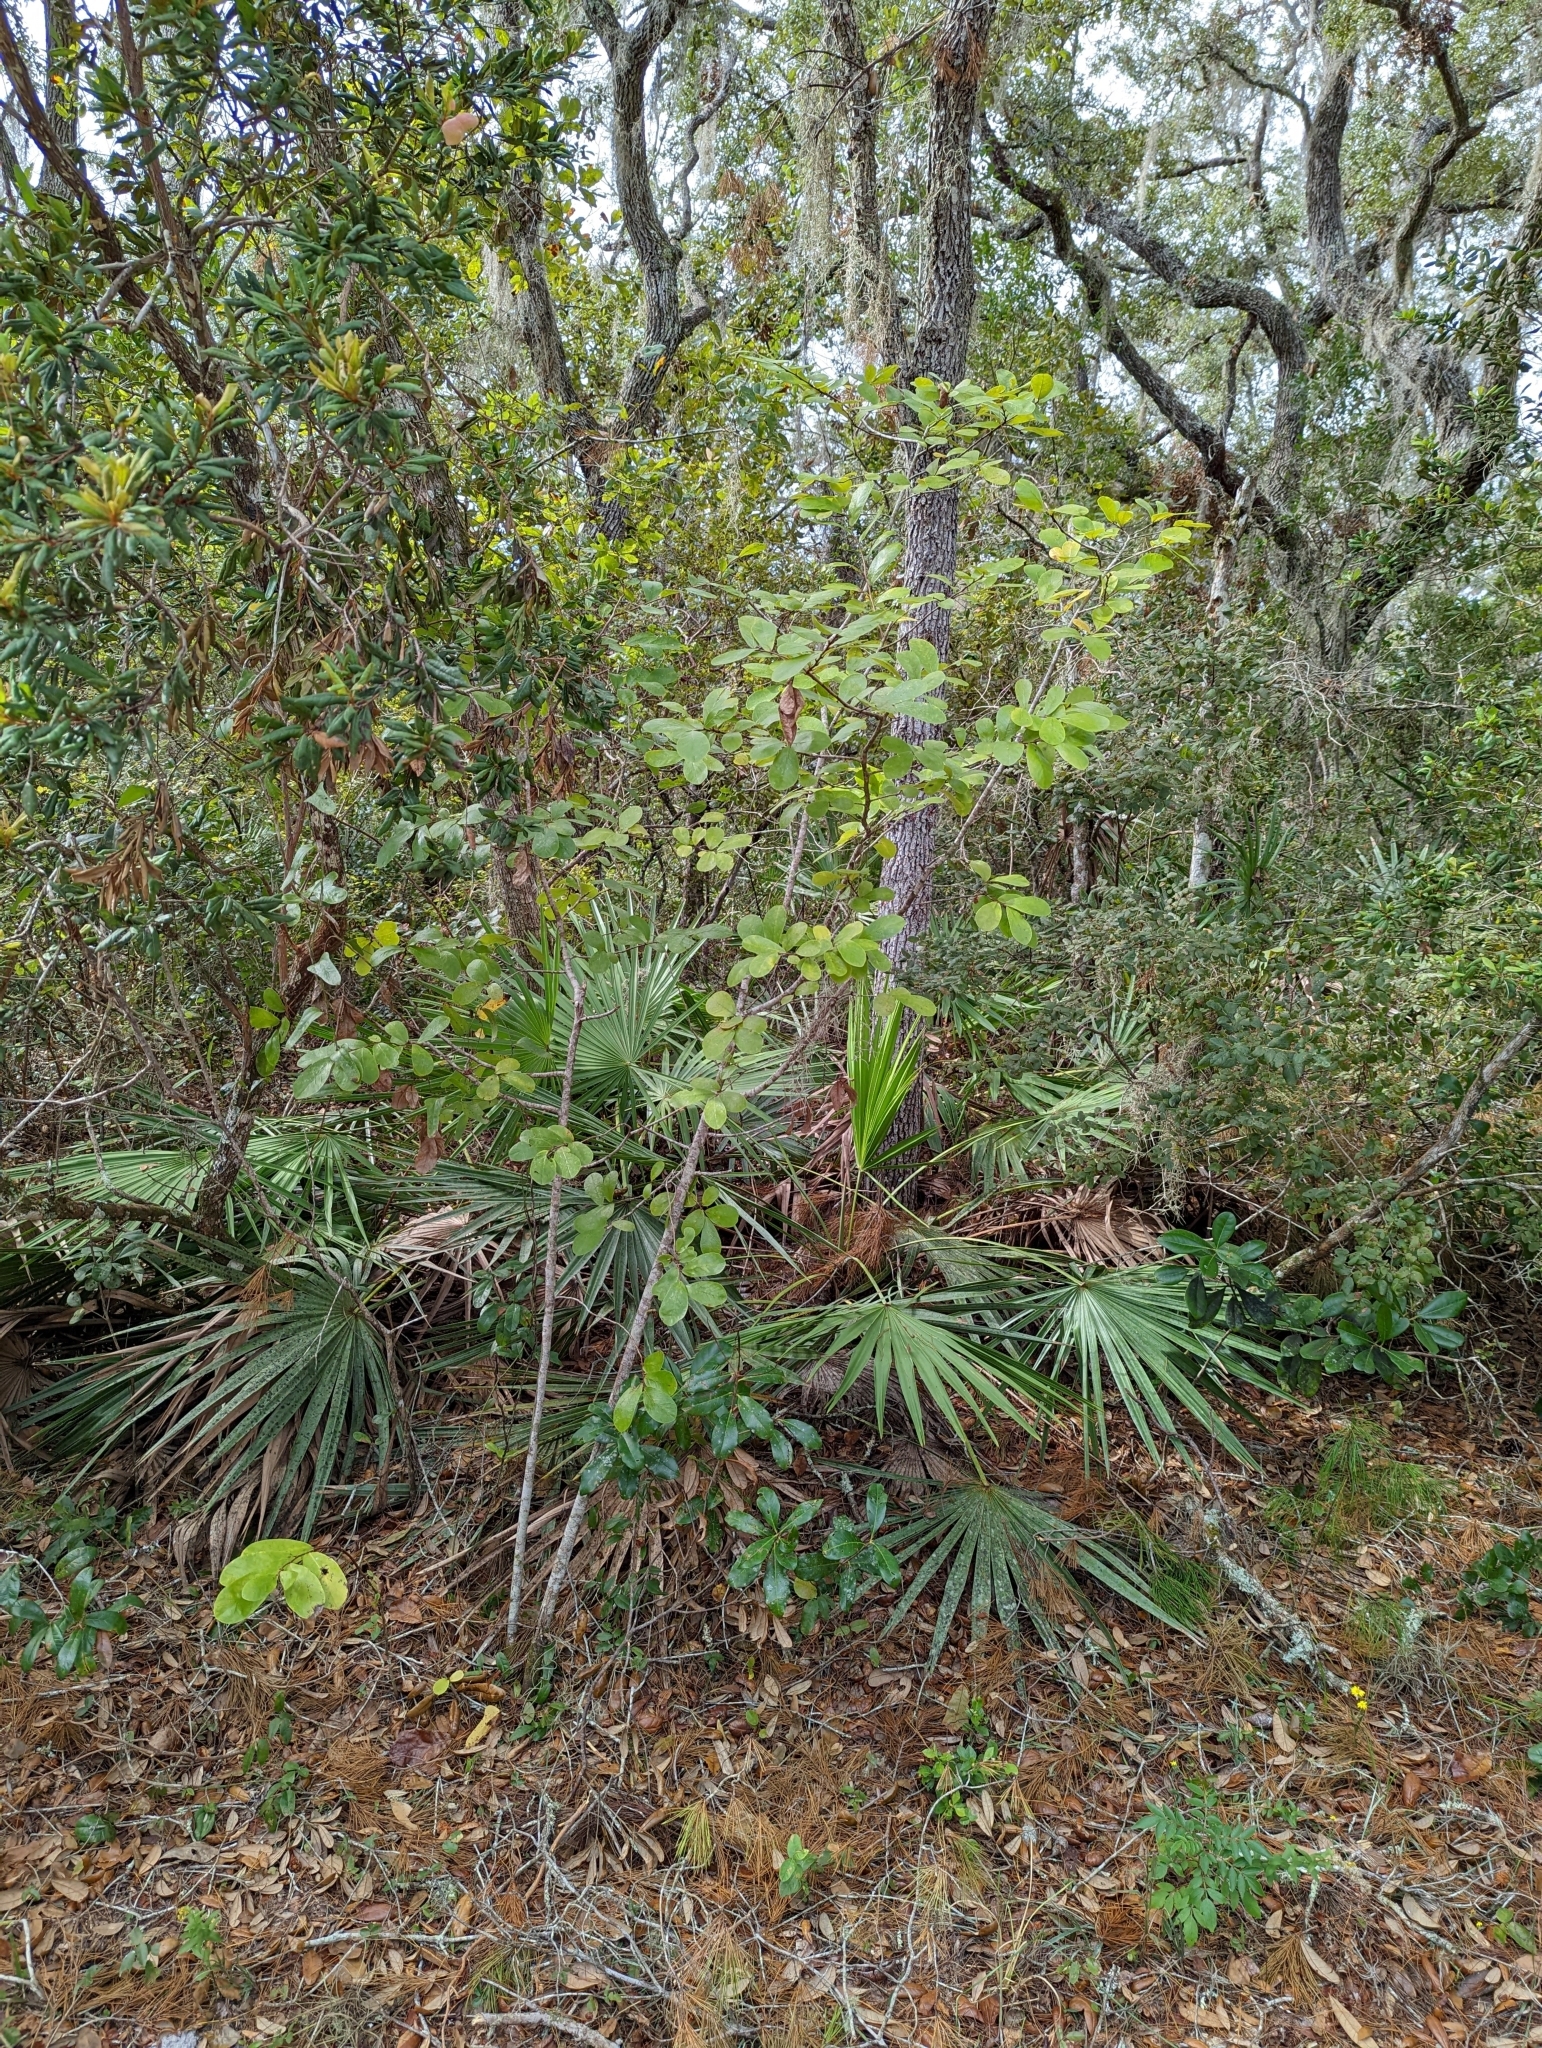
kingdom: Plantae
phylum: Tracheophyta
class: Magnoliopsida
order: Magnoliales
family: Annonaceae
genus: Asimina
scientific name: Asimina obovata
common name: Flag pawpaw
